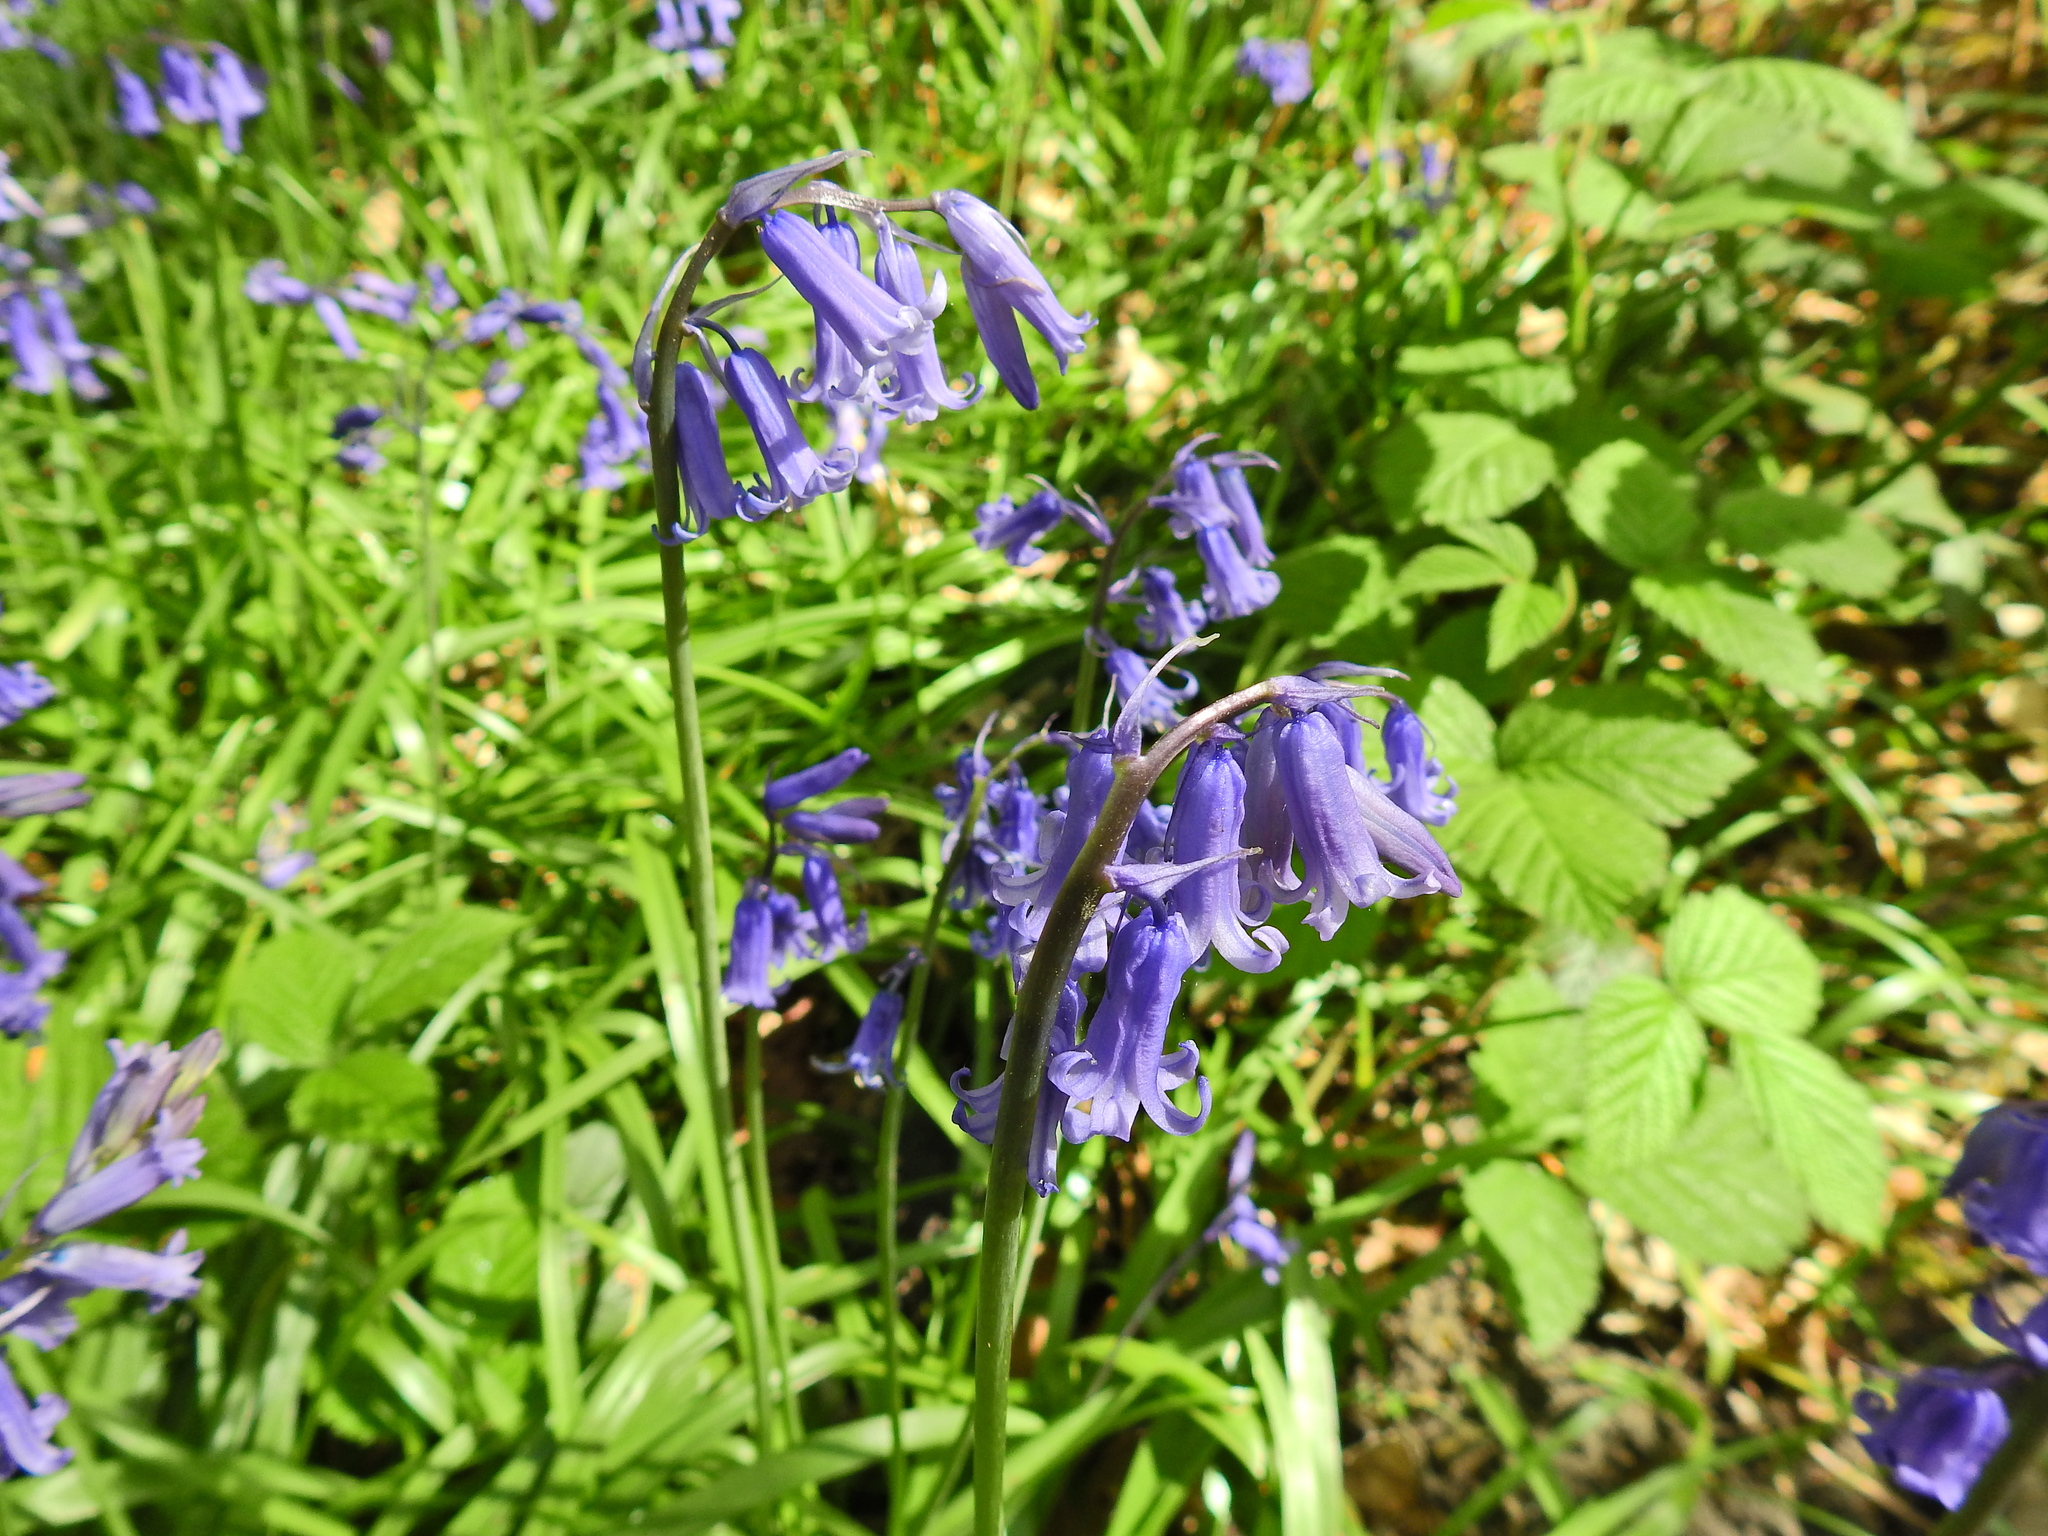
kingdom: Plantae
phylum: Tracheophyta
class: Liliopsida
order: Asparagales
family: Asparagaceae
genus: Hyacinthoides
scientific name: Hyacinthoides non-scripta
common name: Bluebell
